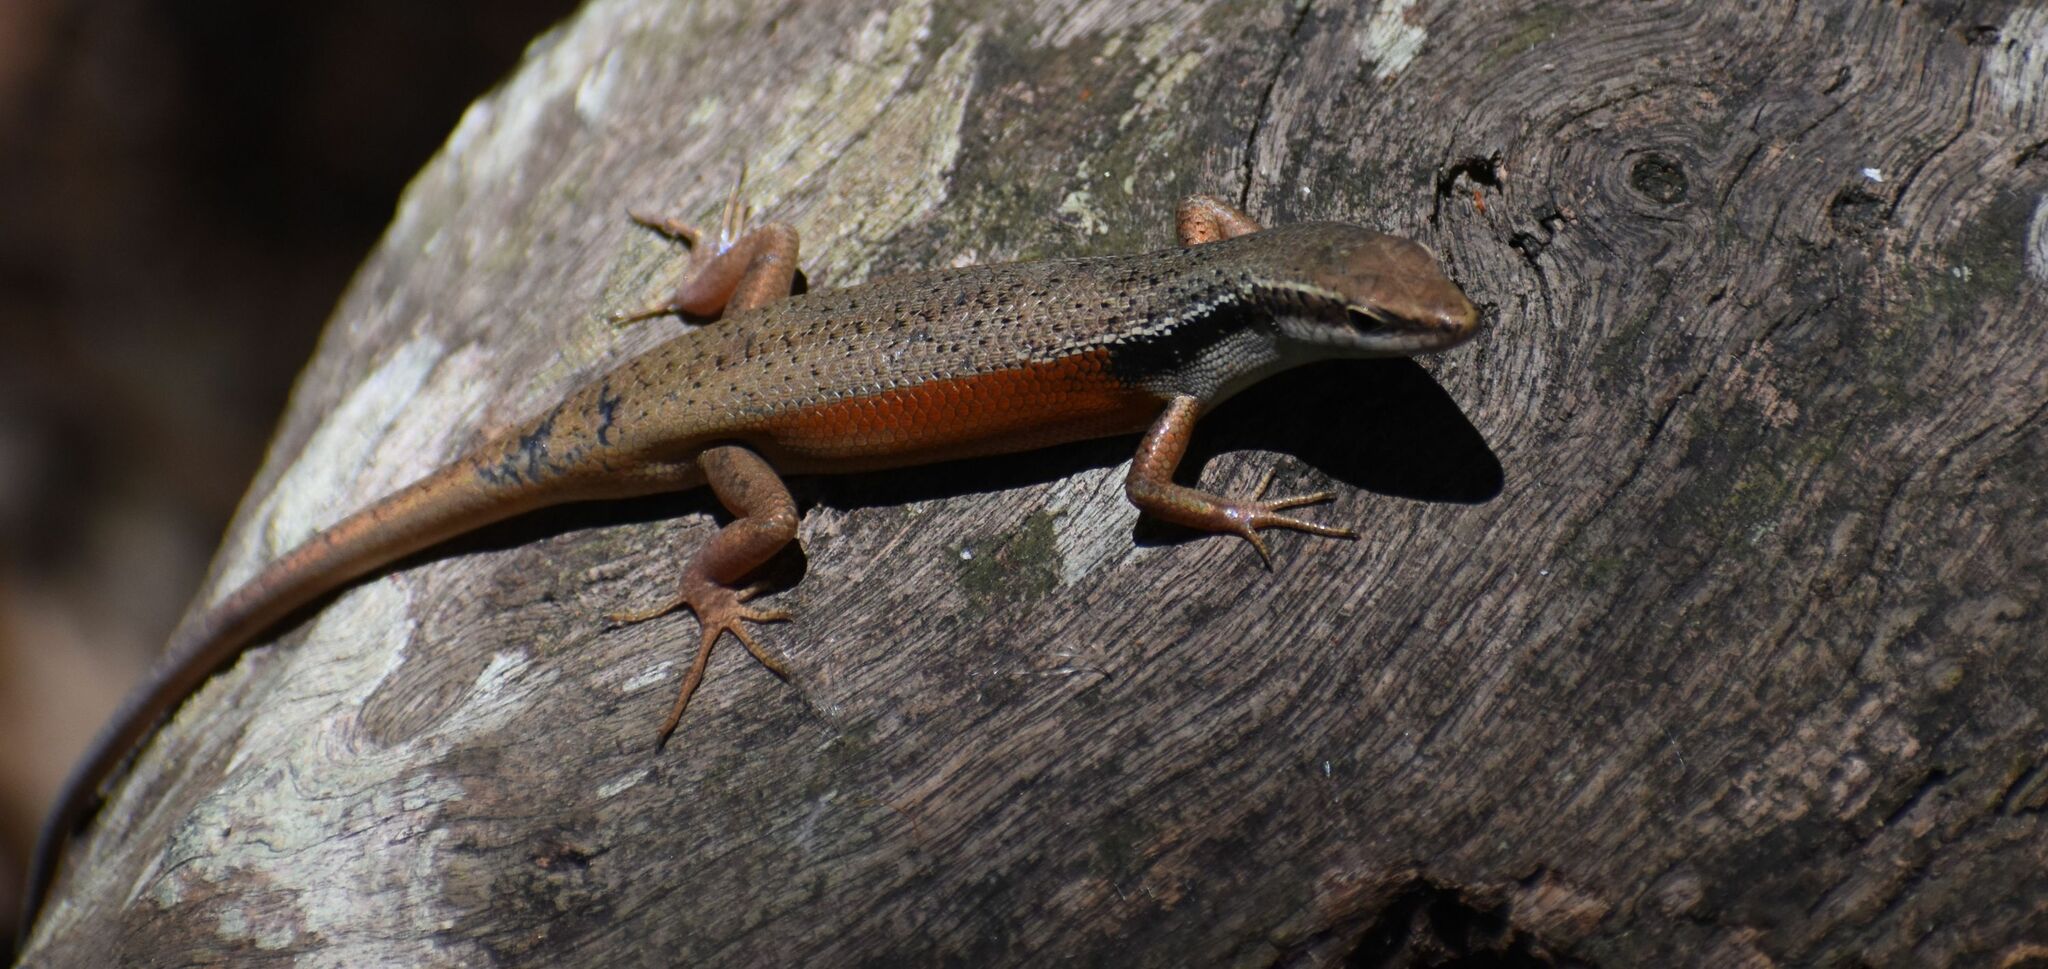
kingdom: Animalia
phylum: Chordata
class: Squamata
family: Scincidae
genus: Carlia
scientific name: Carlia longipes
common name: Closed-litter rainbow-skink
